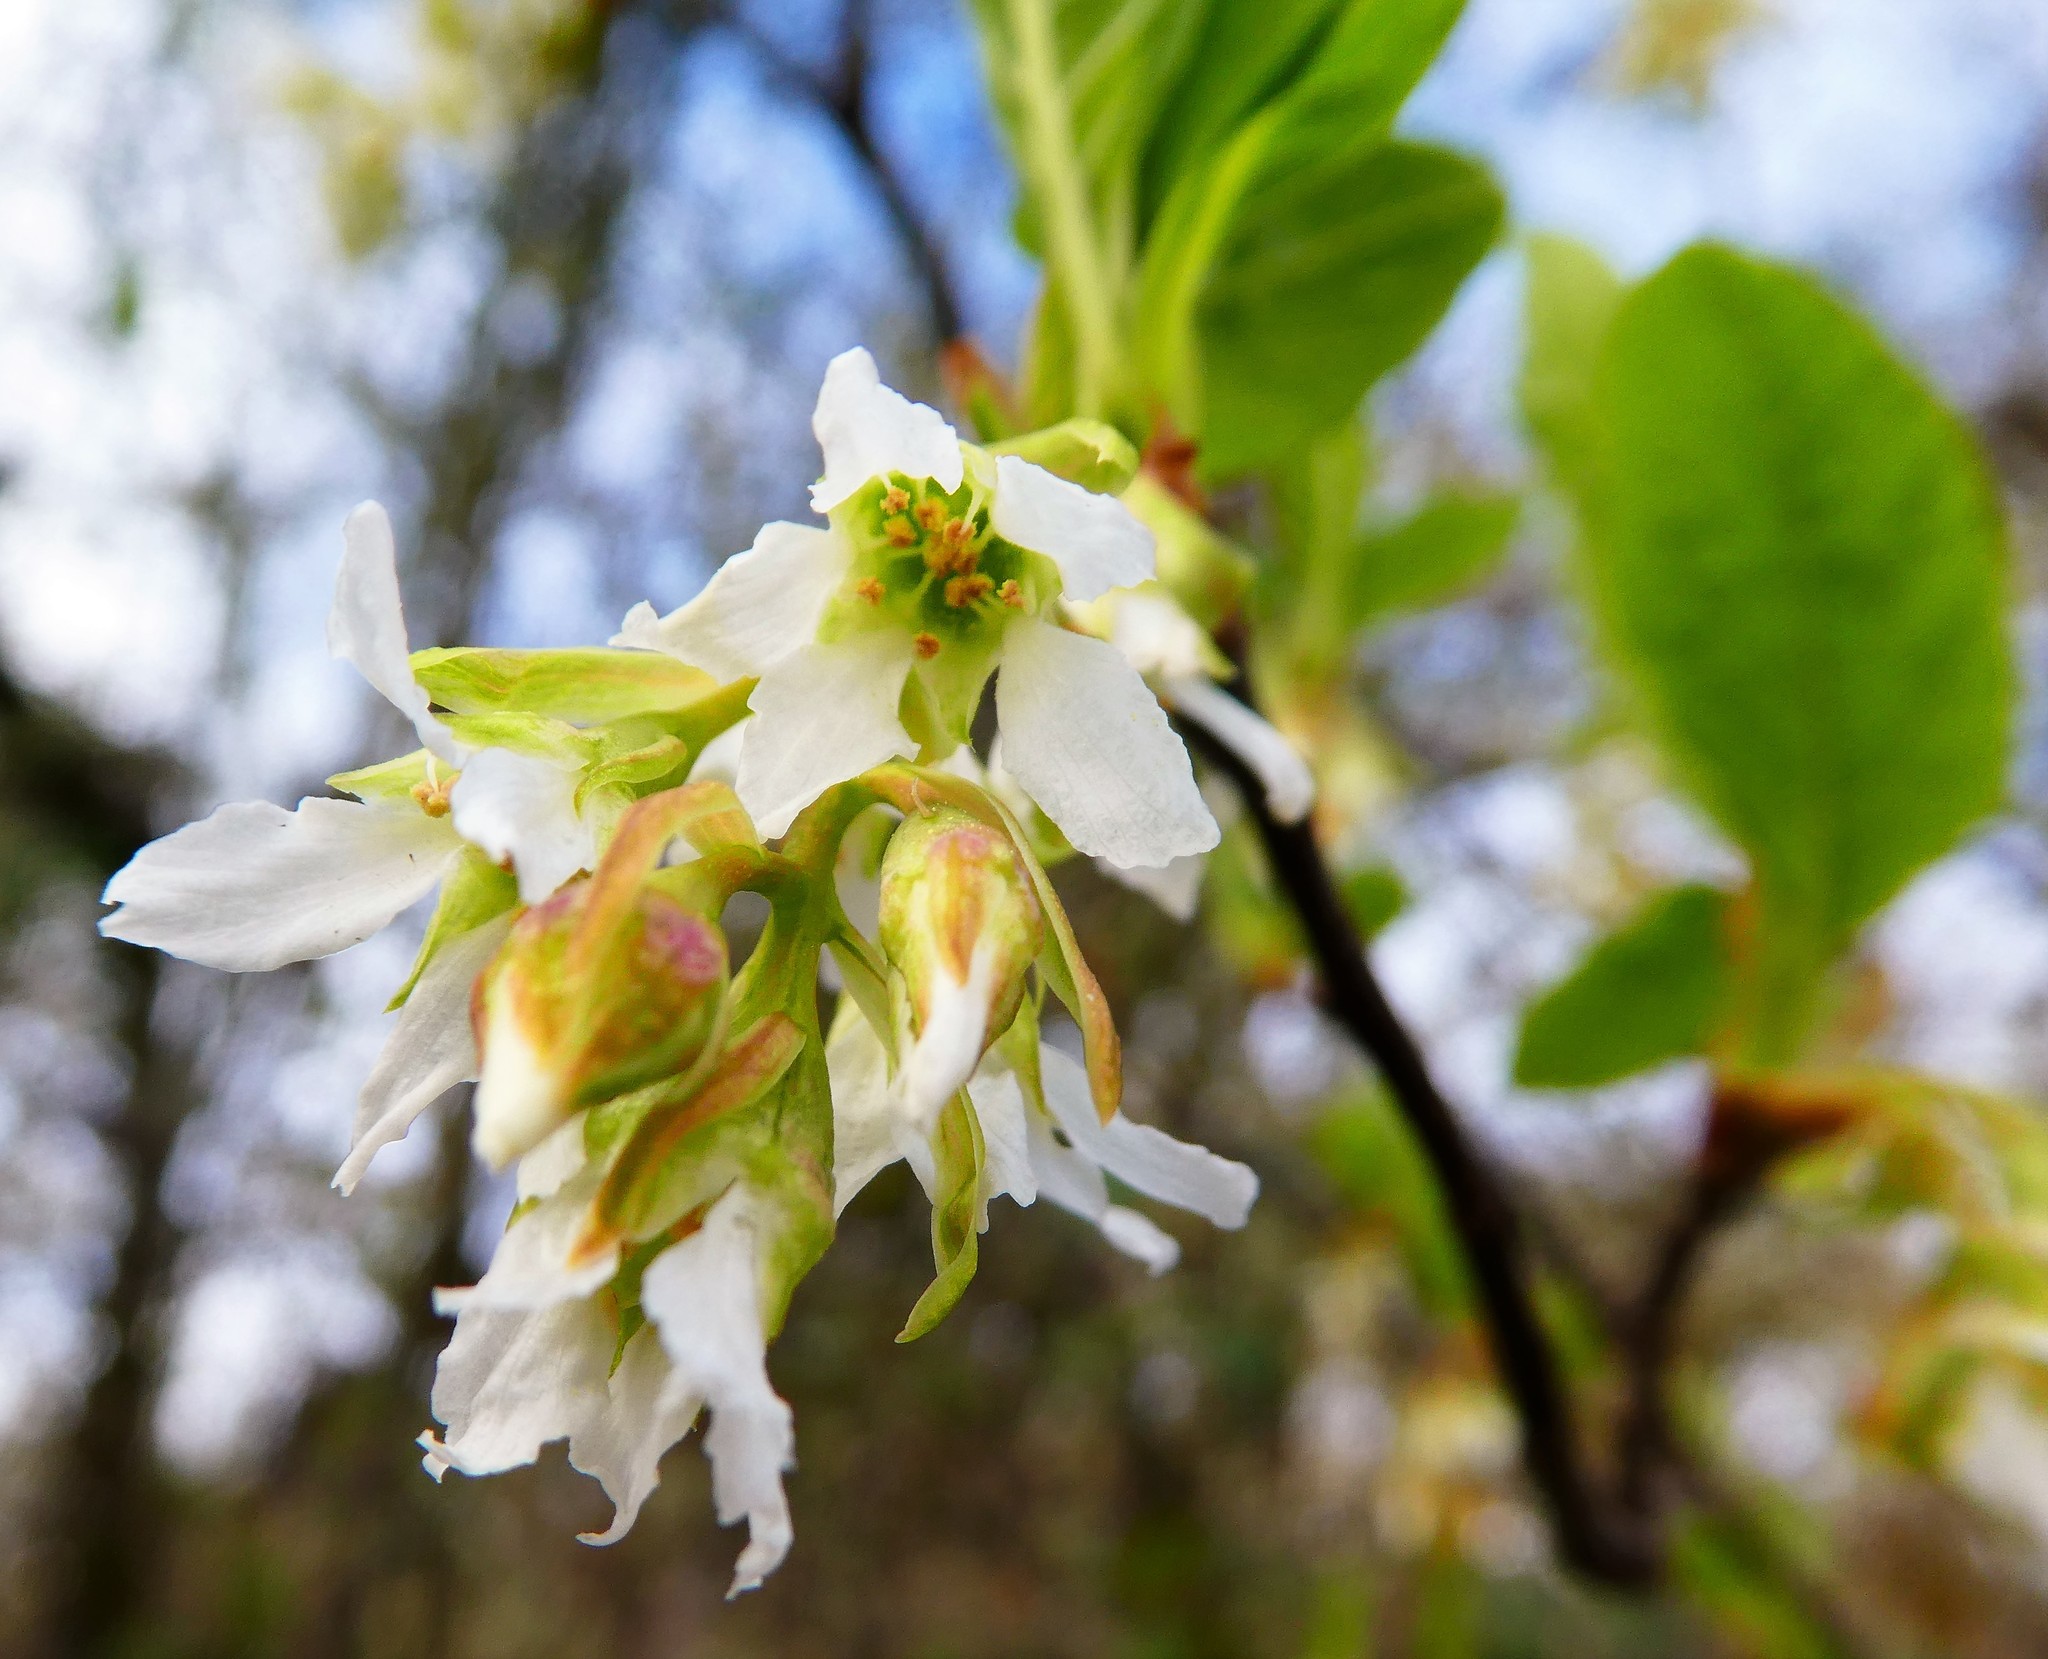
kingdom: Plantae
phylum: Tracheophyta
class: Magnoliopsida
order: Rosales
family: Rosaceae
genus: Oemleria
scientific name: Oemleria cerasiformis
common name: Osoberry
